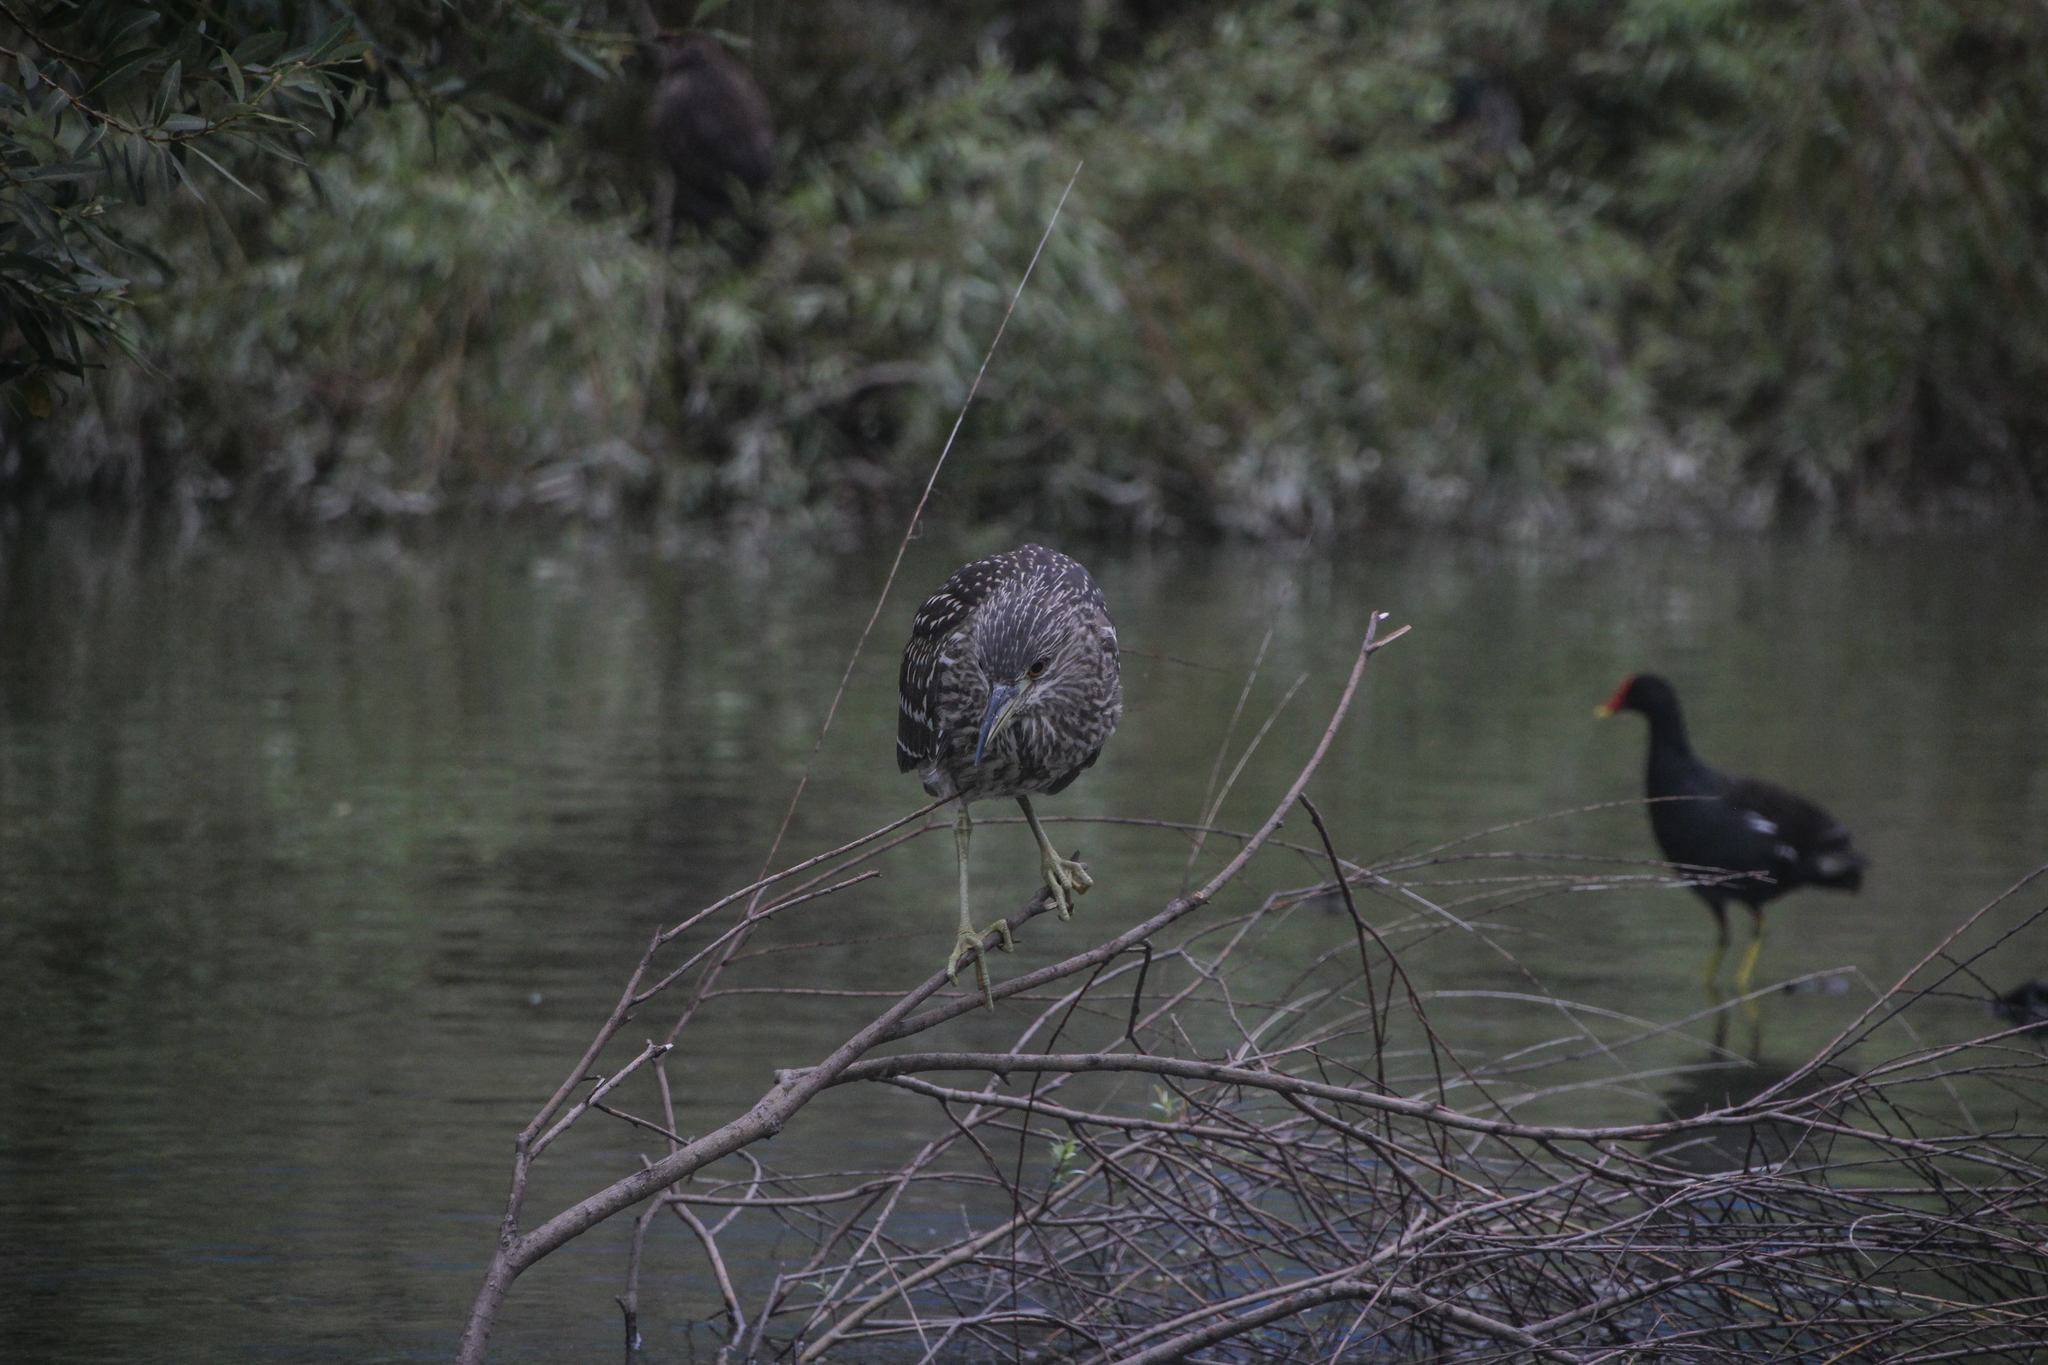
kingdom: Animalia
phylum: Chordata
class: Aves
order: Pelecaniformes
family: Ardeidae
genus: Nycticorax
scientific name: Nycticorax nycticorax
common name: Black-crowned night heron
